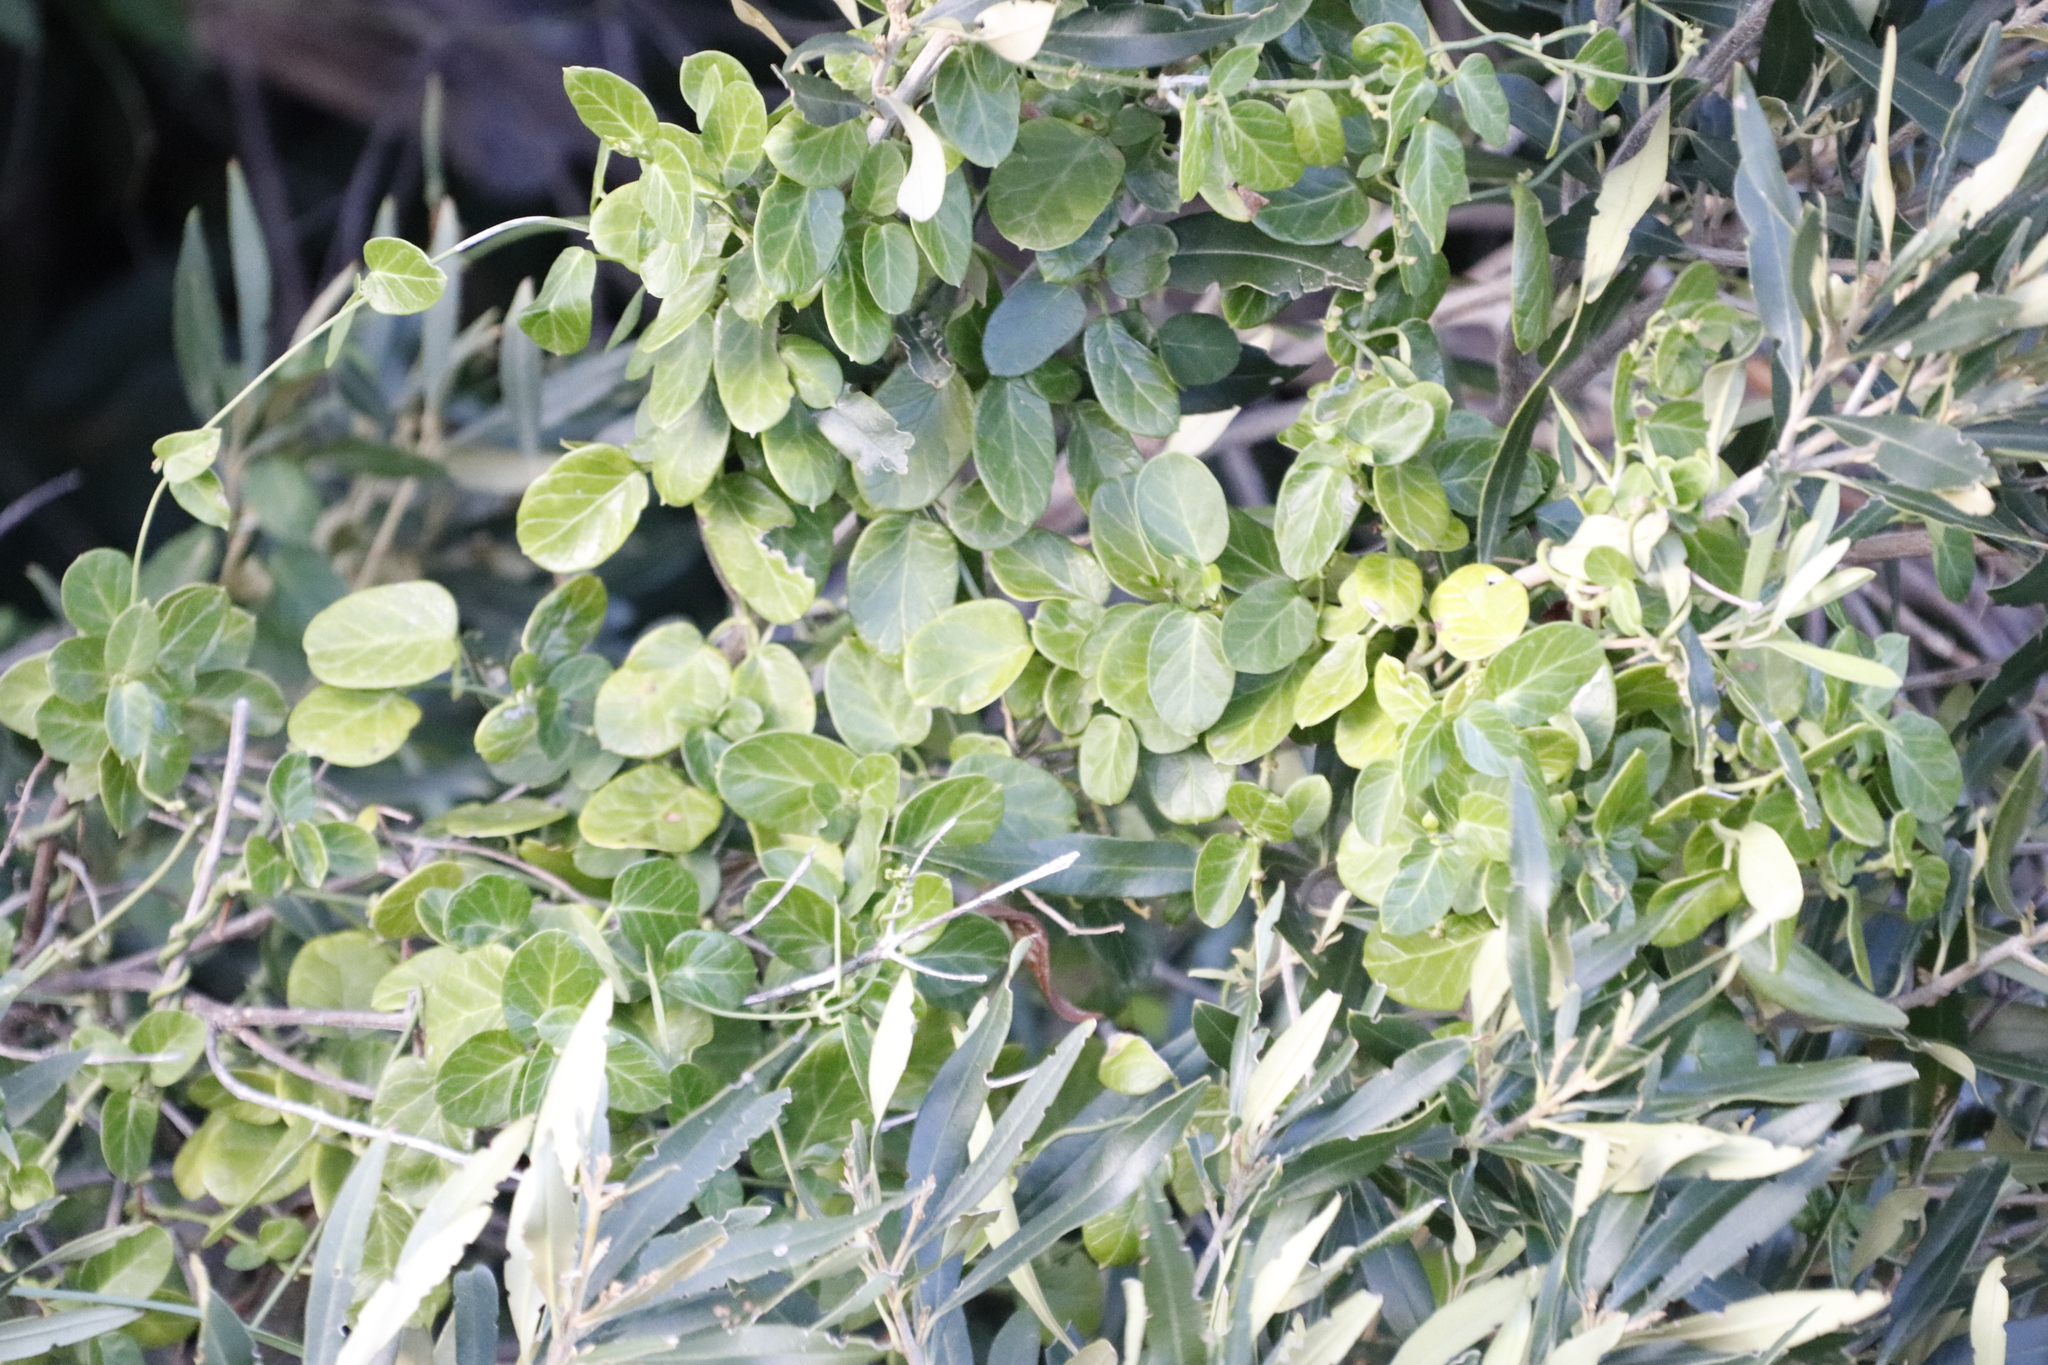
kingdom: Plantae
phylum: Tracheophyta
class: Magnoliopsida
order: Gentianales
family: Apocynaceae
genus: Cynanchum
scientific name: Cynanchum obtusifolium
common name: Monkey-rope
